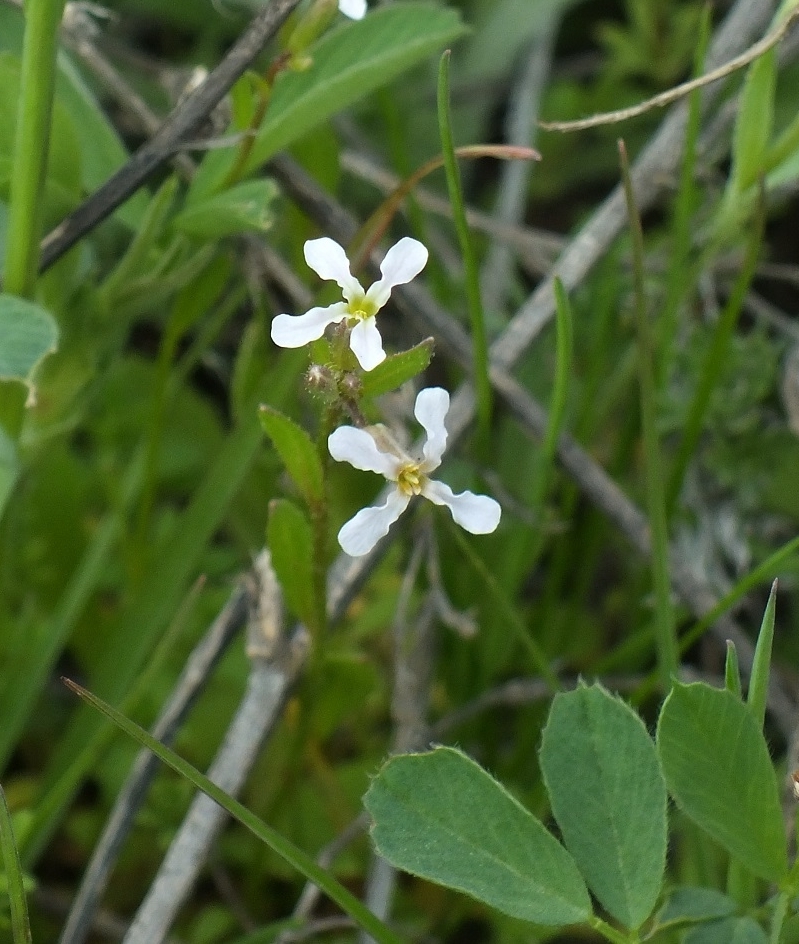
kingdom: Plantae
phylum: Tracheophyta
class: Magnoliopsida
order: Brassicales
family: Brassicaceae
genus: Chorispora
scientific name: Chorispora tenella
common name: Crossflower
